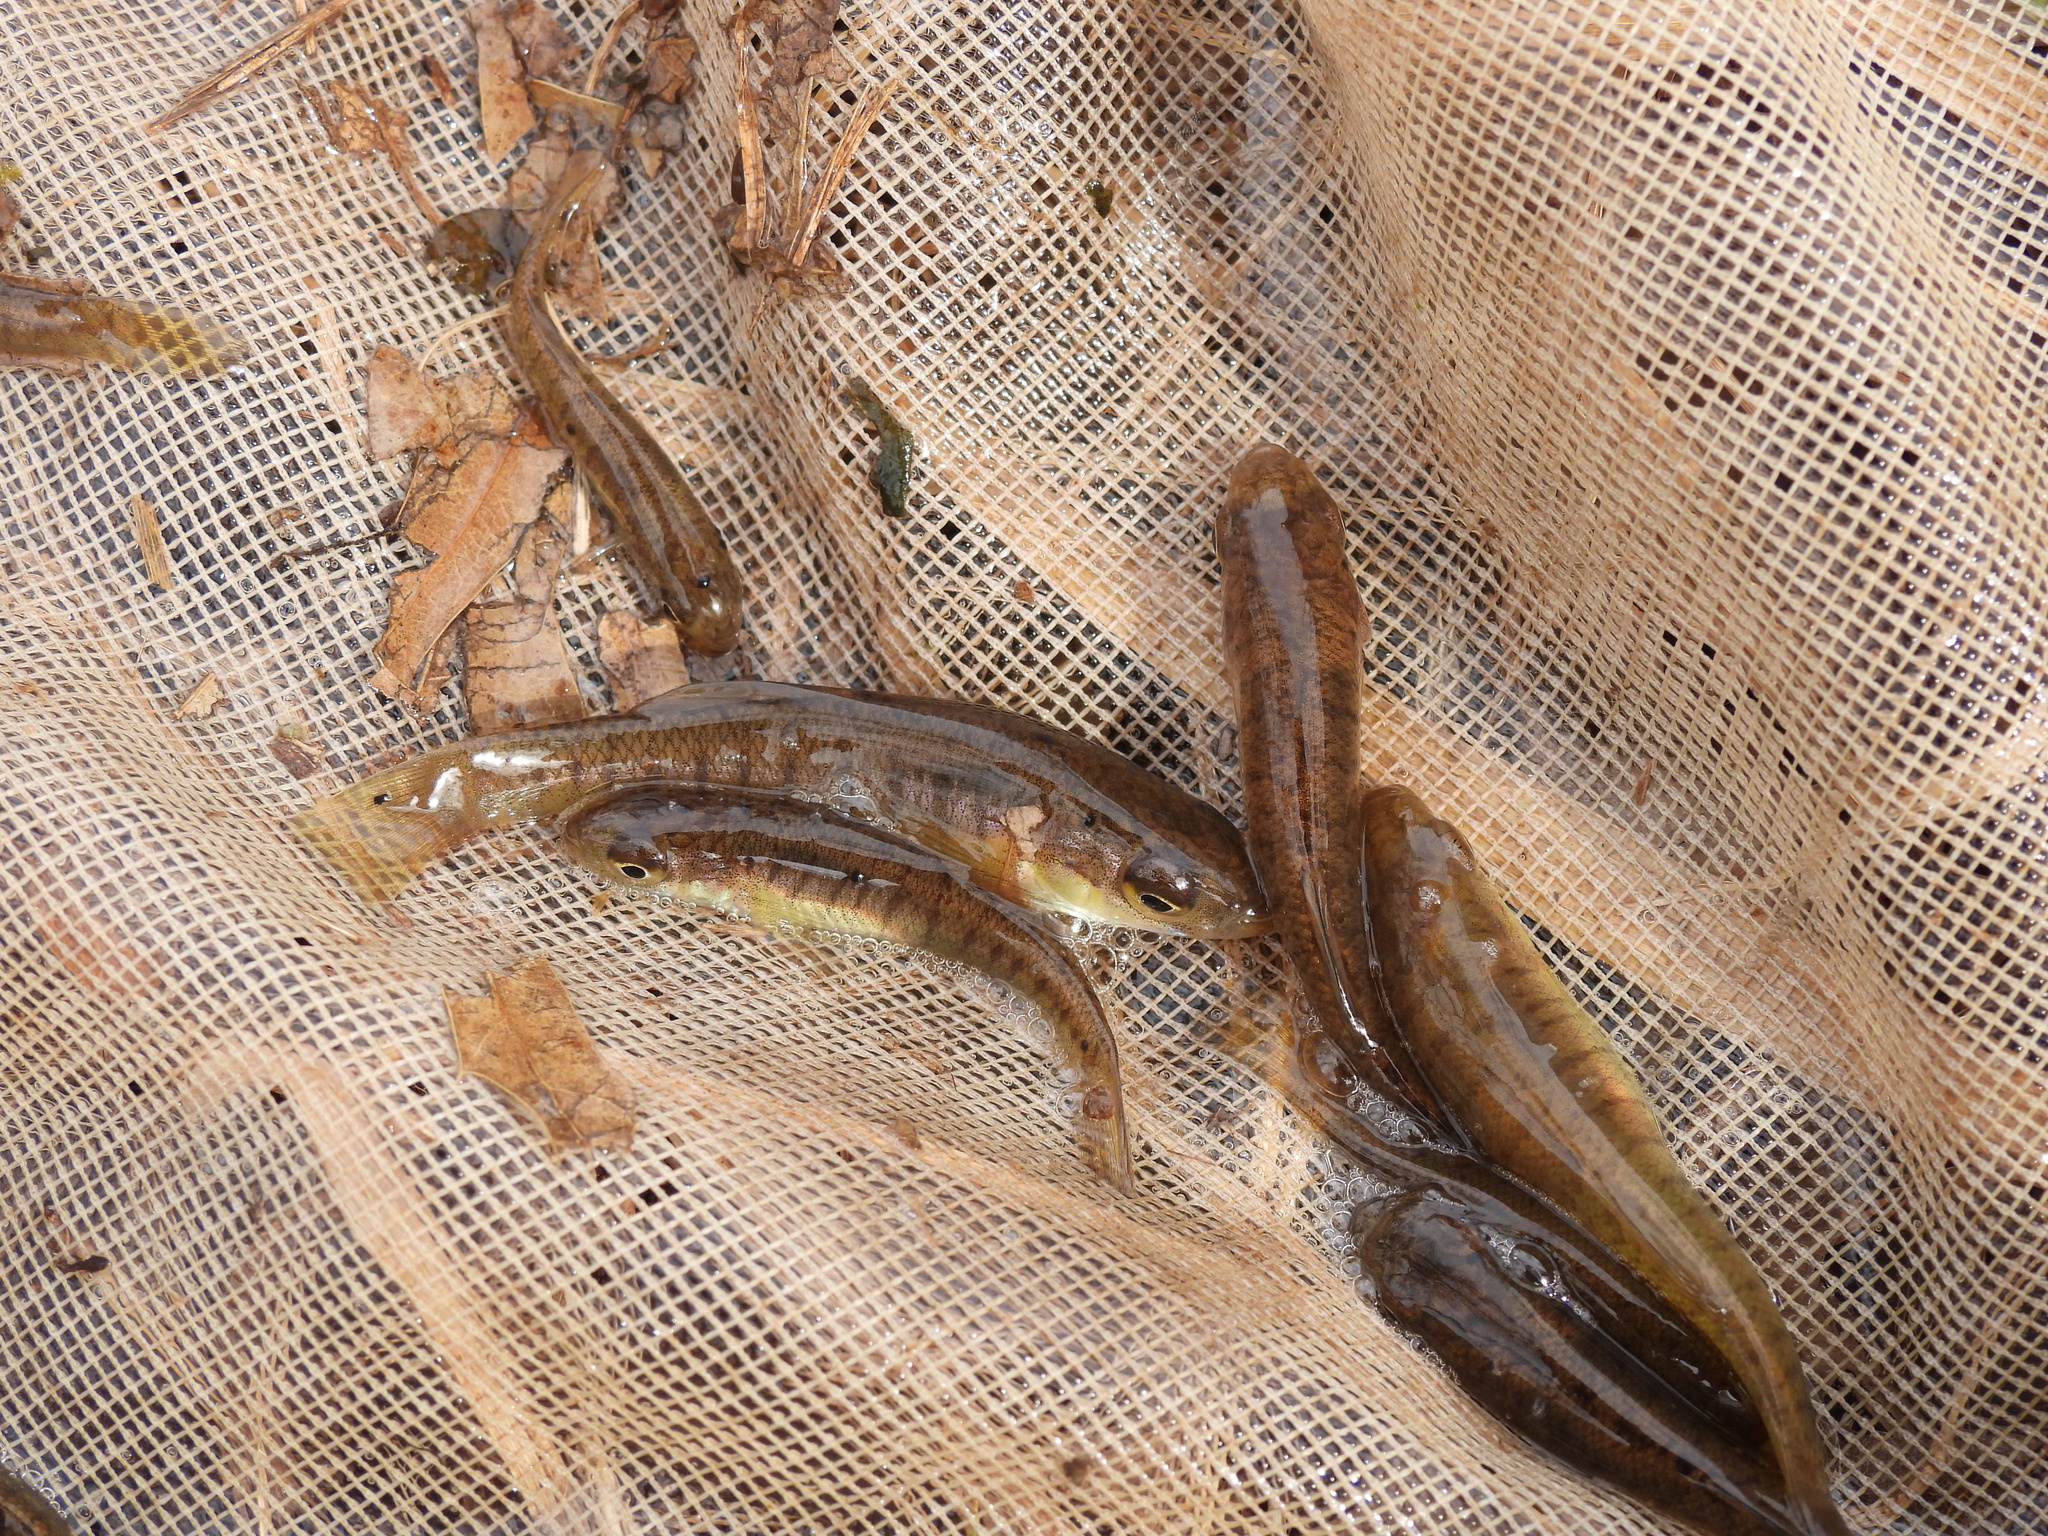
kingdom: Animalia
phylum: Chordata
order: Cyprinodontiformes
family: Fundulidae
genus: Fundulus
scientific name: Fundulus diaphanus
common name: Banded killifish
